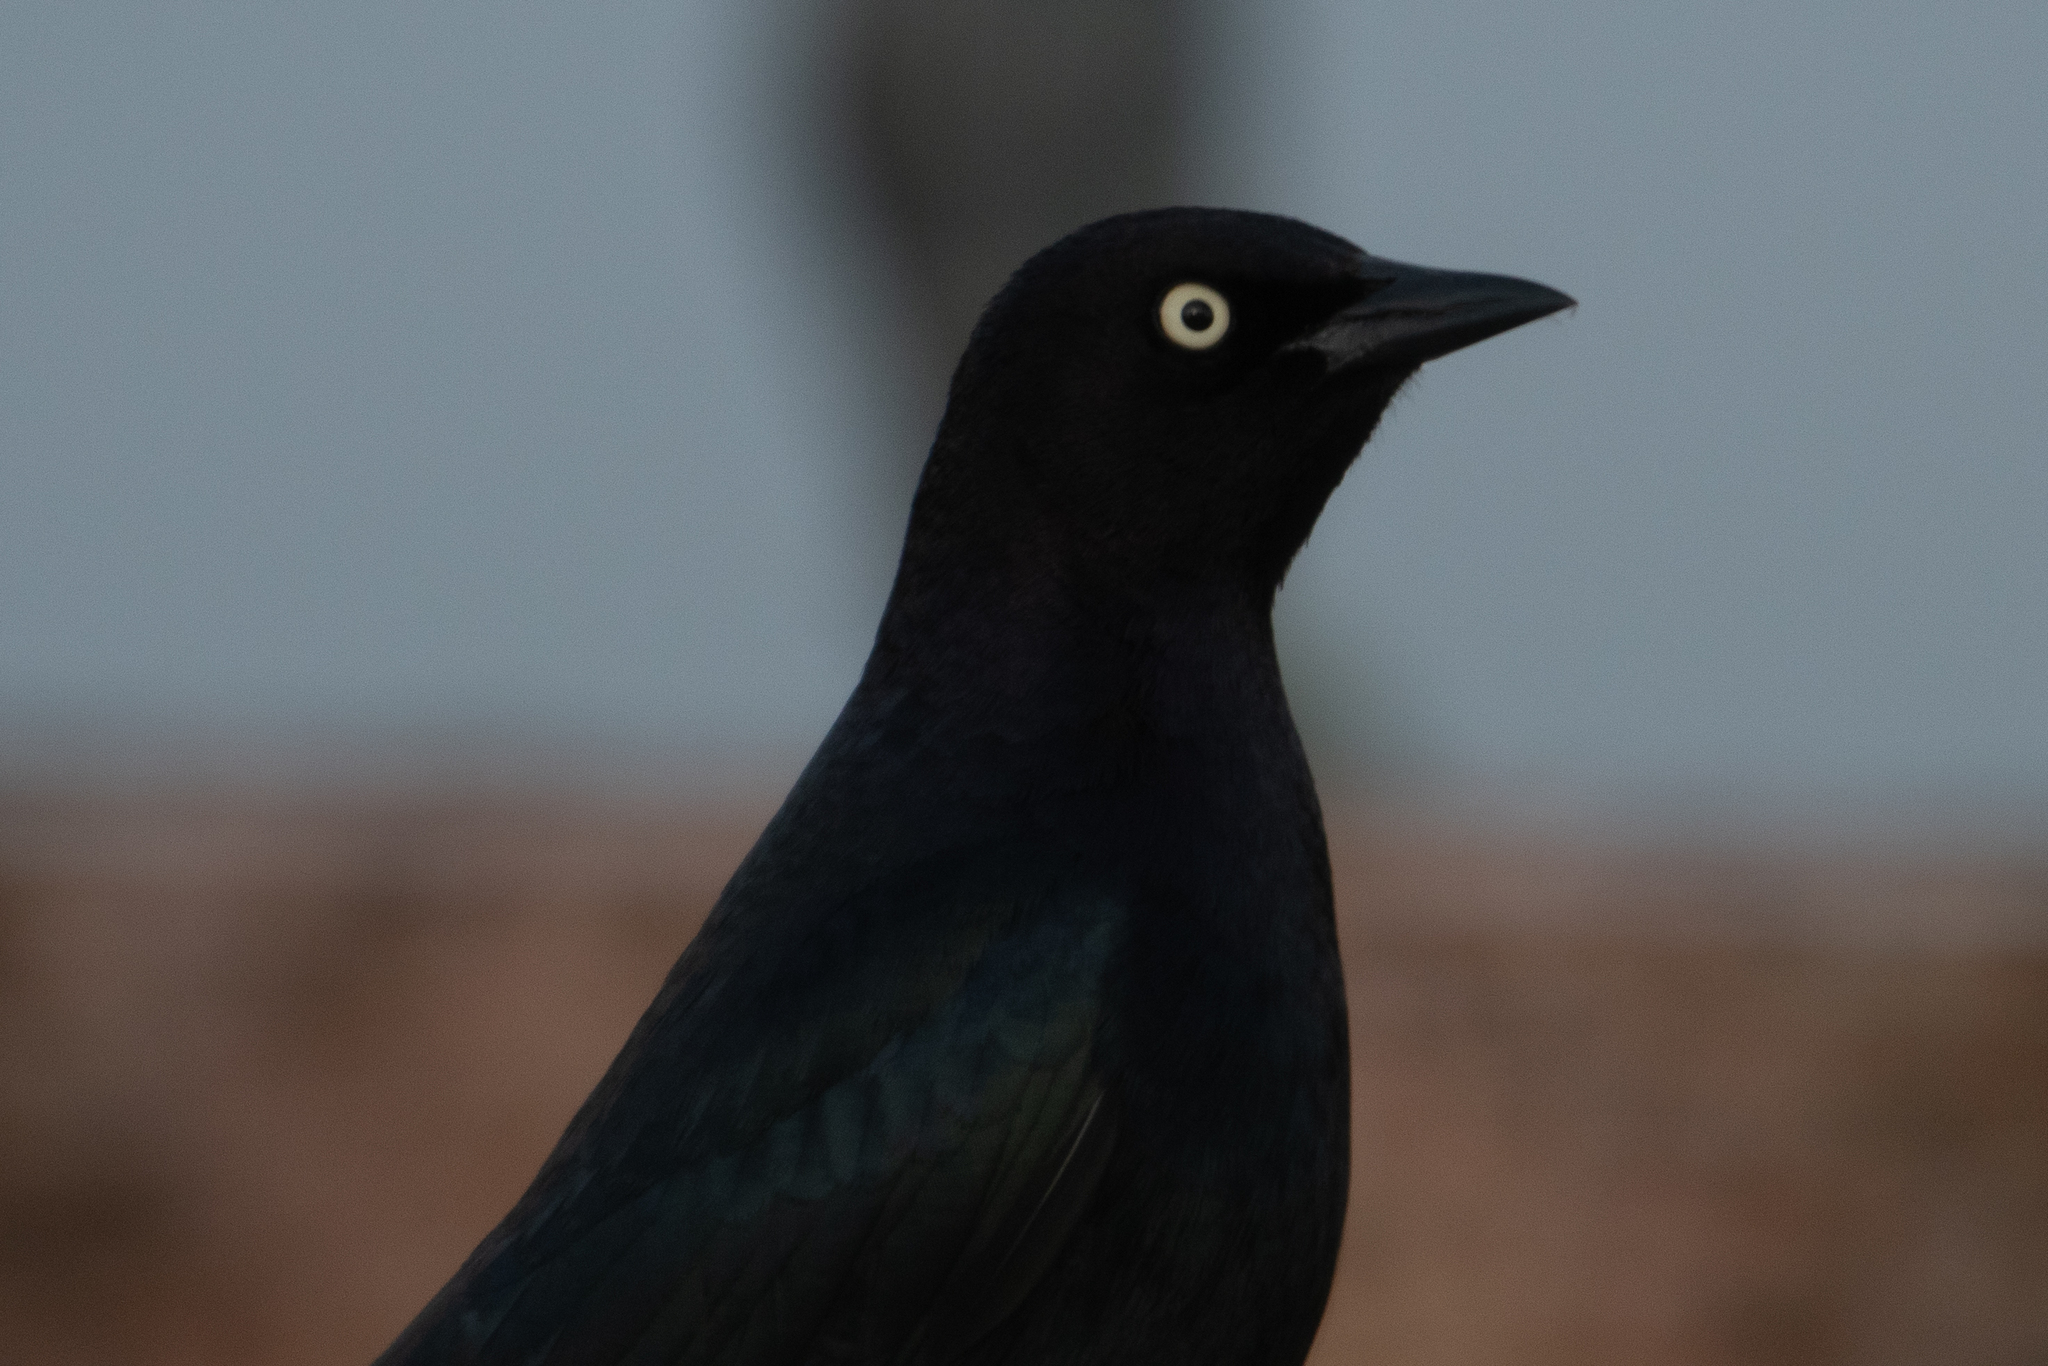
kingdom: Animalia
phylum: Chordata
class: Aves
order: Passeriformes
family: Icteridae
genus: Euphagus
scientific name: Euphagus cyanocephalus
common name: Brewer's blackbird
